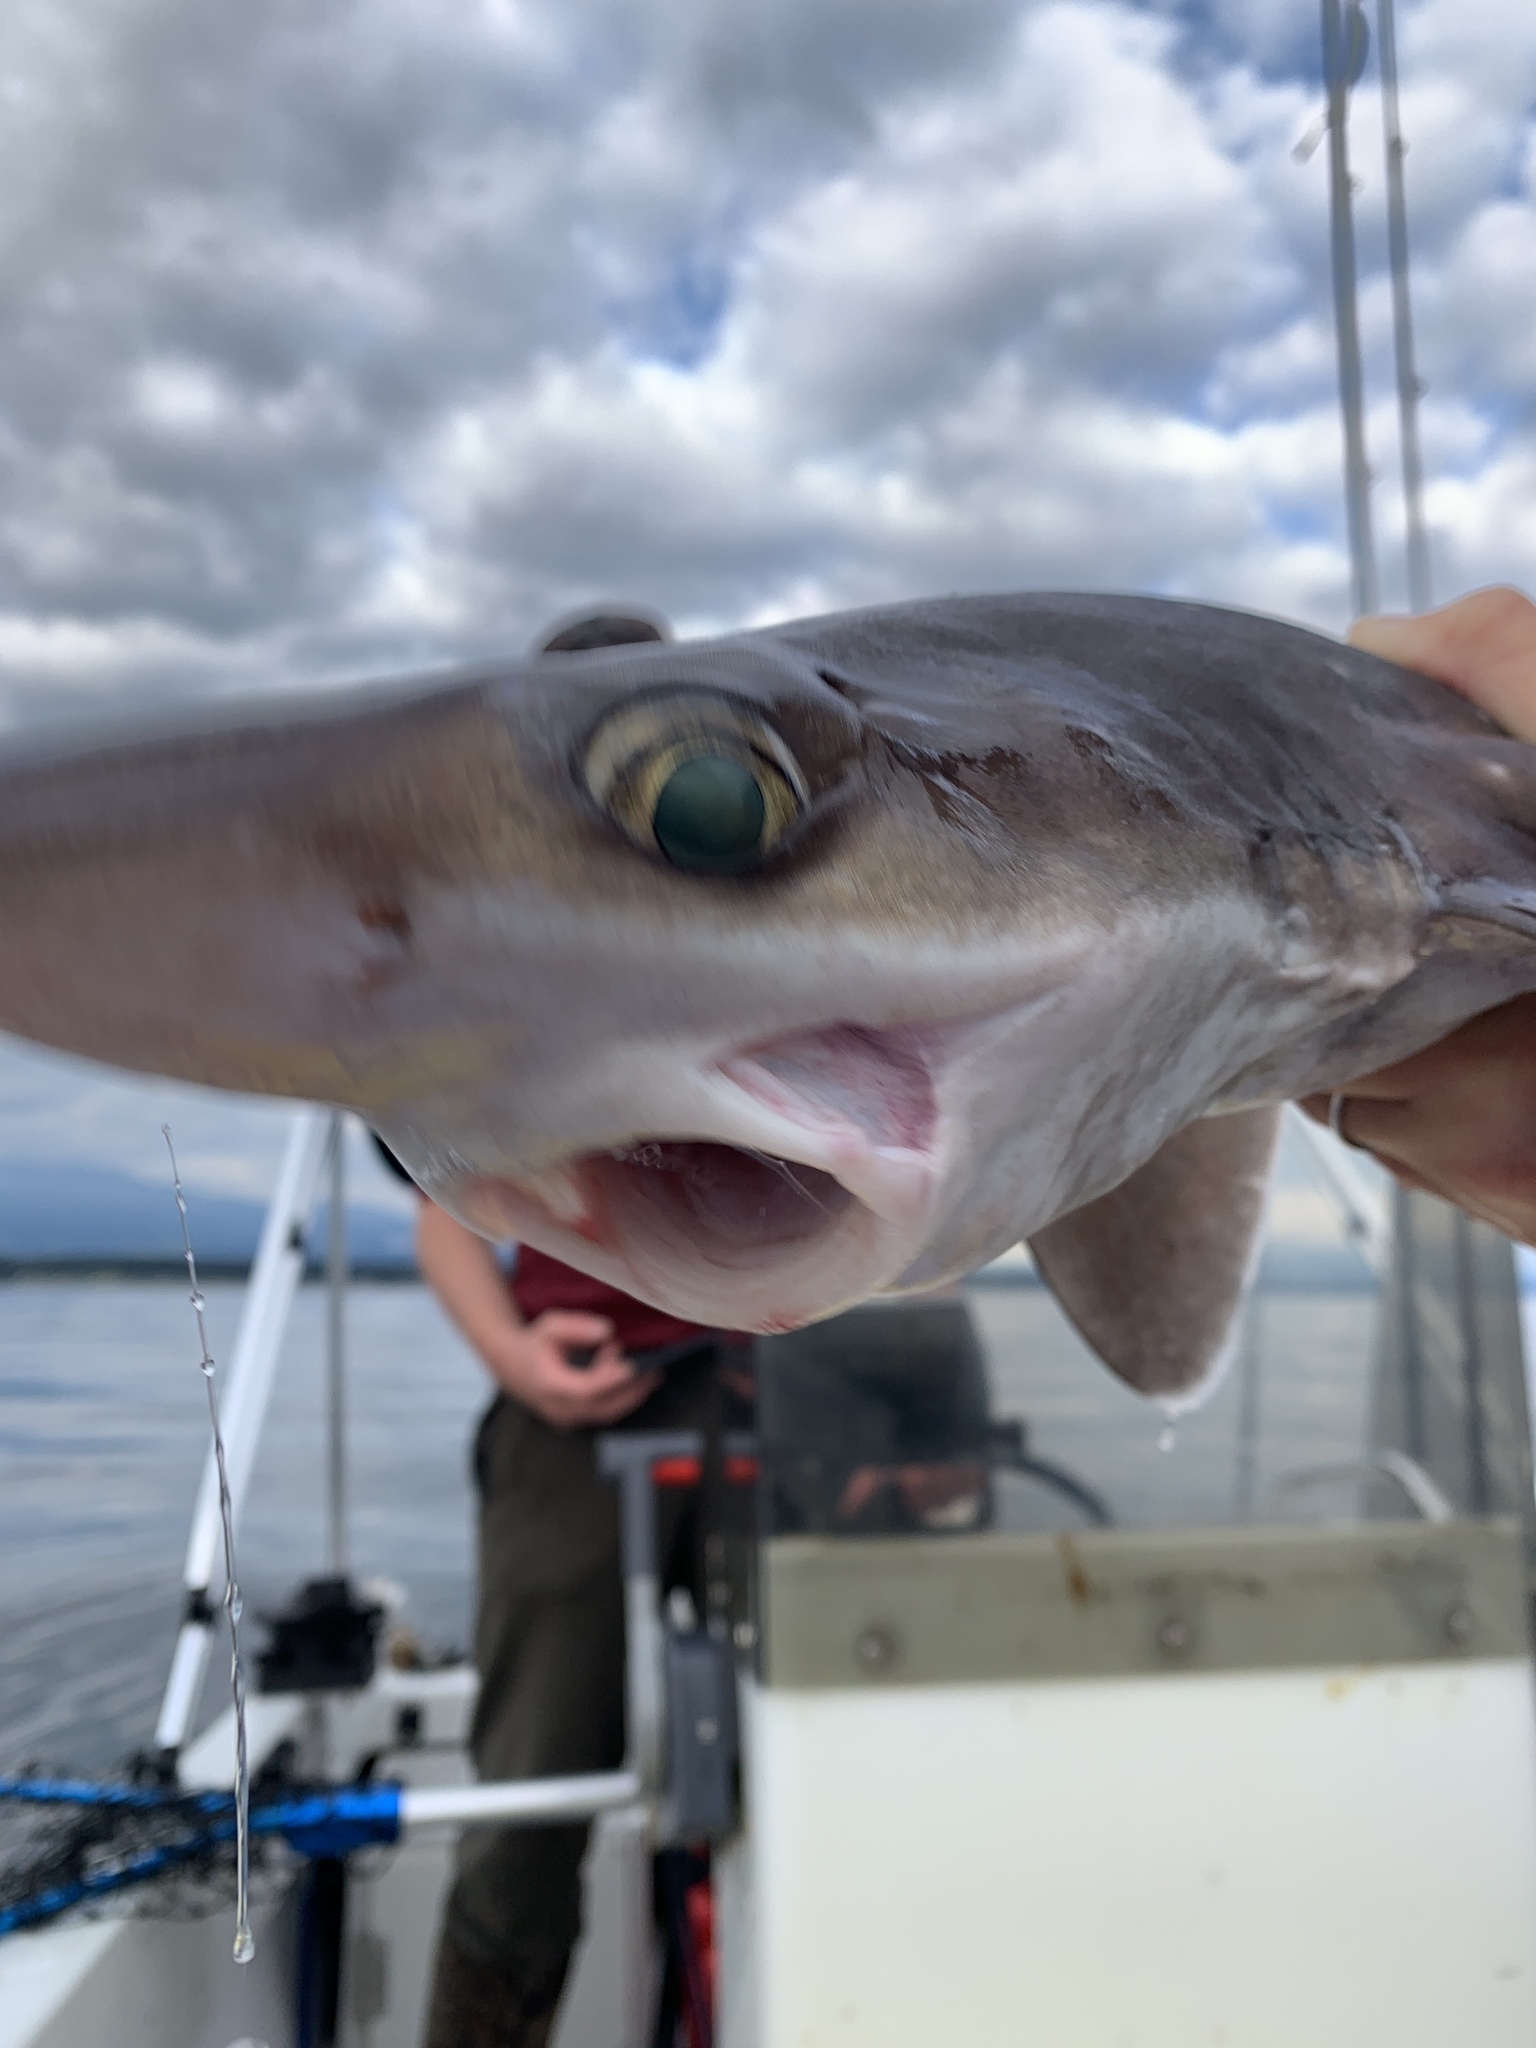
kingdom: Animalia
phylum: Chordata
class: Elasmobranchii
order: Squaliformes
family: Squalidae
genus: Squalus
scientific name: Squalus suckleyi
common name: Spiny dogfish
